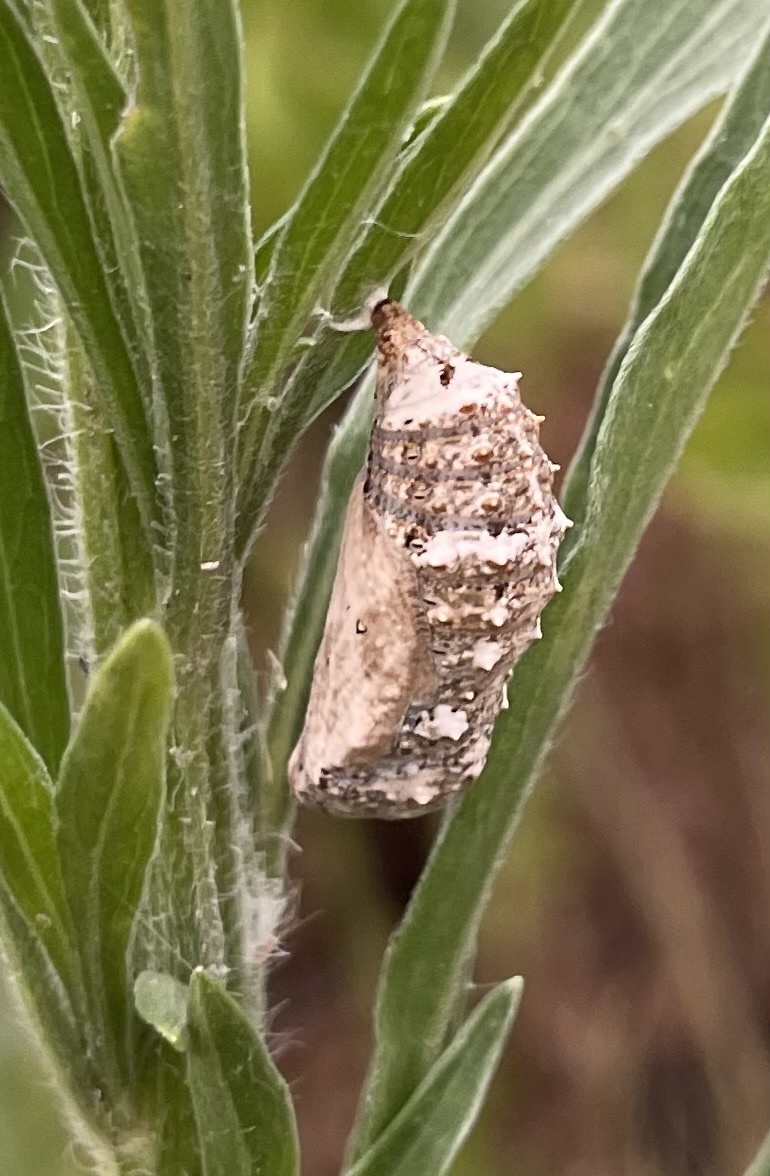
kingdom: Animalia
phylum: Arthropoda
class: Insecta
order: Lepidoptera
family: Nymphalidae
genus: Junonia
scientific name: Junonia coenia
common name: Common buckeye
